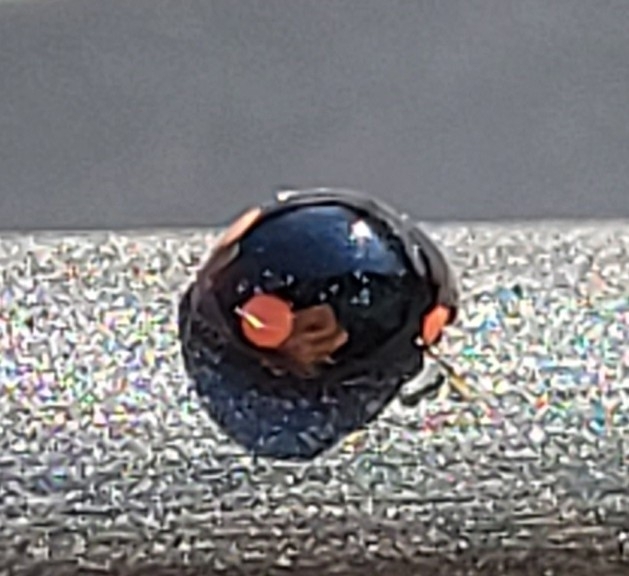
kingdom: Animalia
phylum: Arthropoda
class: Insecta
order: Coleoptera
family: Coccinellidae
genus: Hyperaspis
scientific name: Hyperaspis bigeminata
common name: Bigeminate sigil lady beetle
